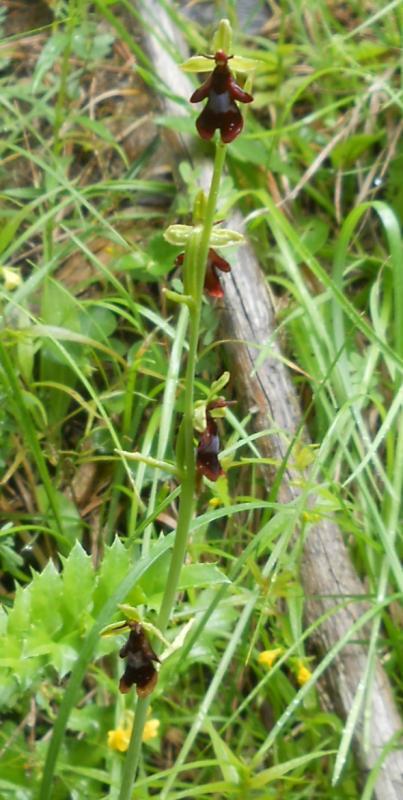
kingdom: Plantae
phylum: Tracheophyta
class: Liliopsida
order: Asparagales
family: Orchidaceae
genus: Ophrys
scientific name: Ophrys insectifera
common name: Fly orchid
